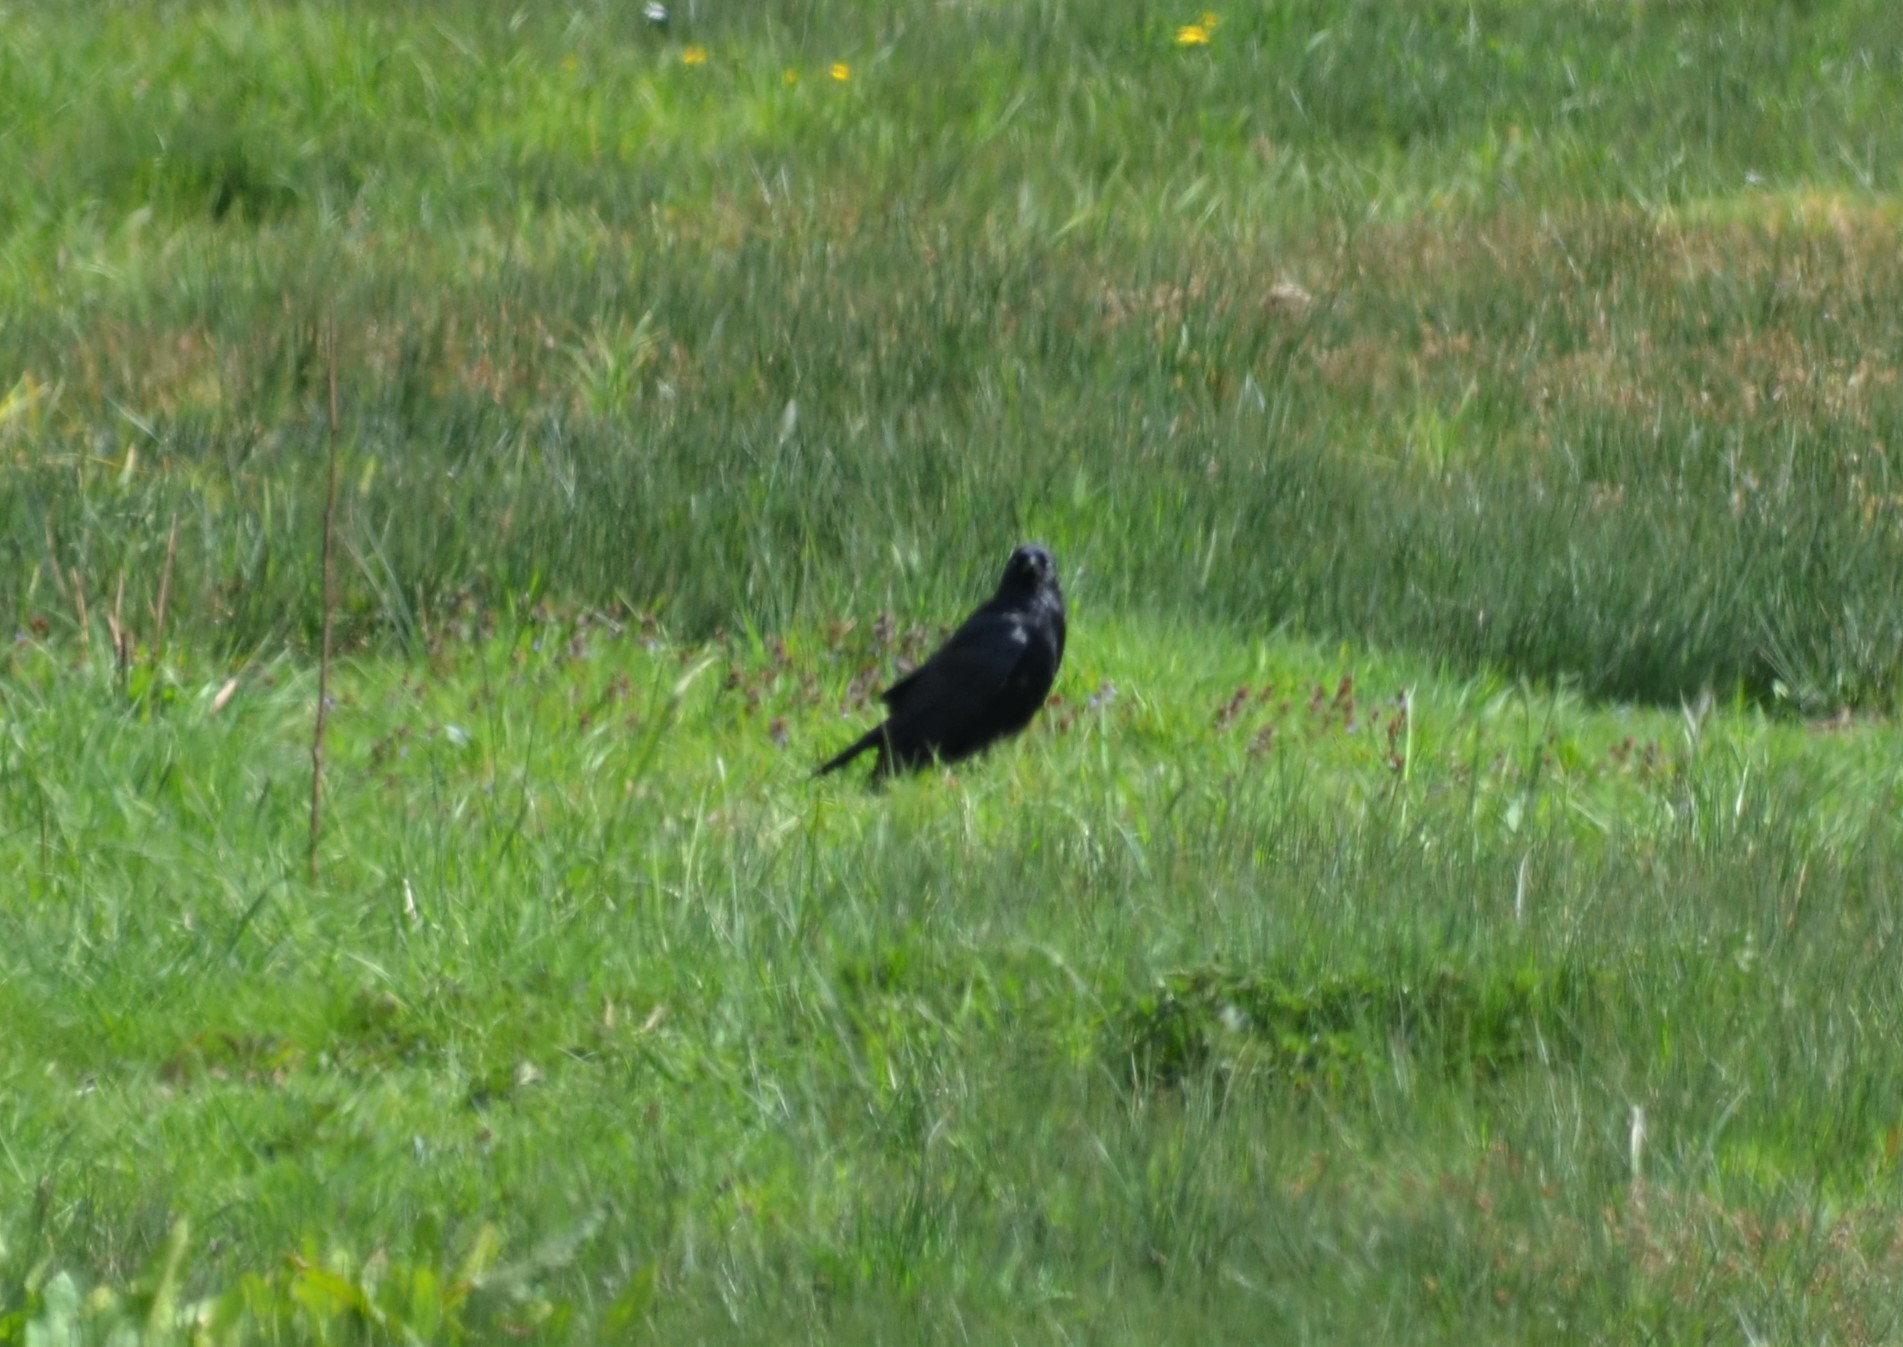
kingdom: Animalia
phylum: Chordata
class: Aves
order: Passeriformes
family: Corvidae
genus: Corvus
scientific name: Corvus corone
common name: Carrion crow
